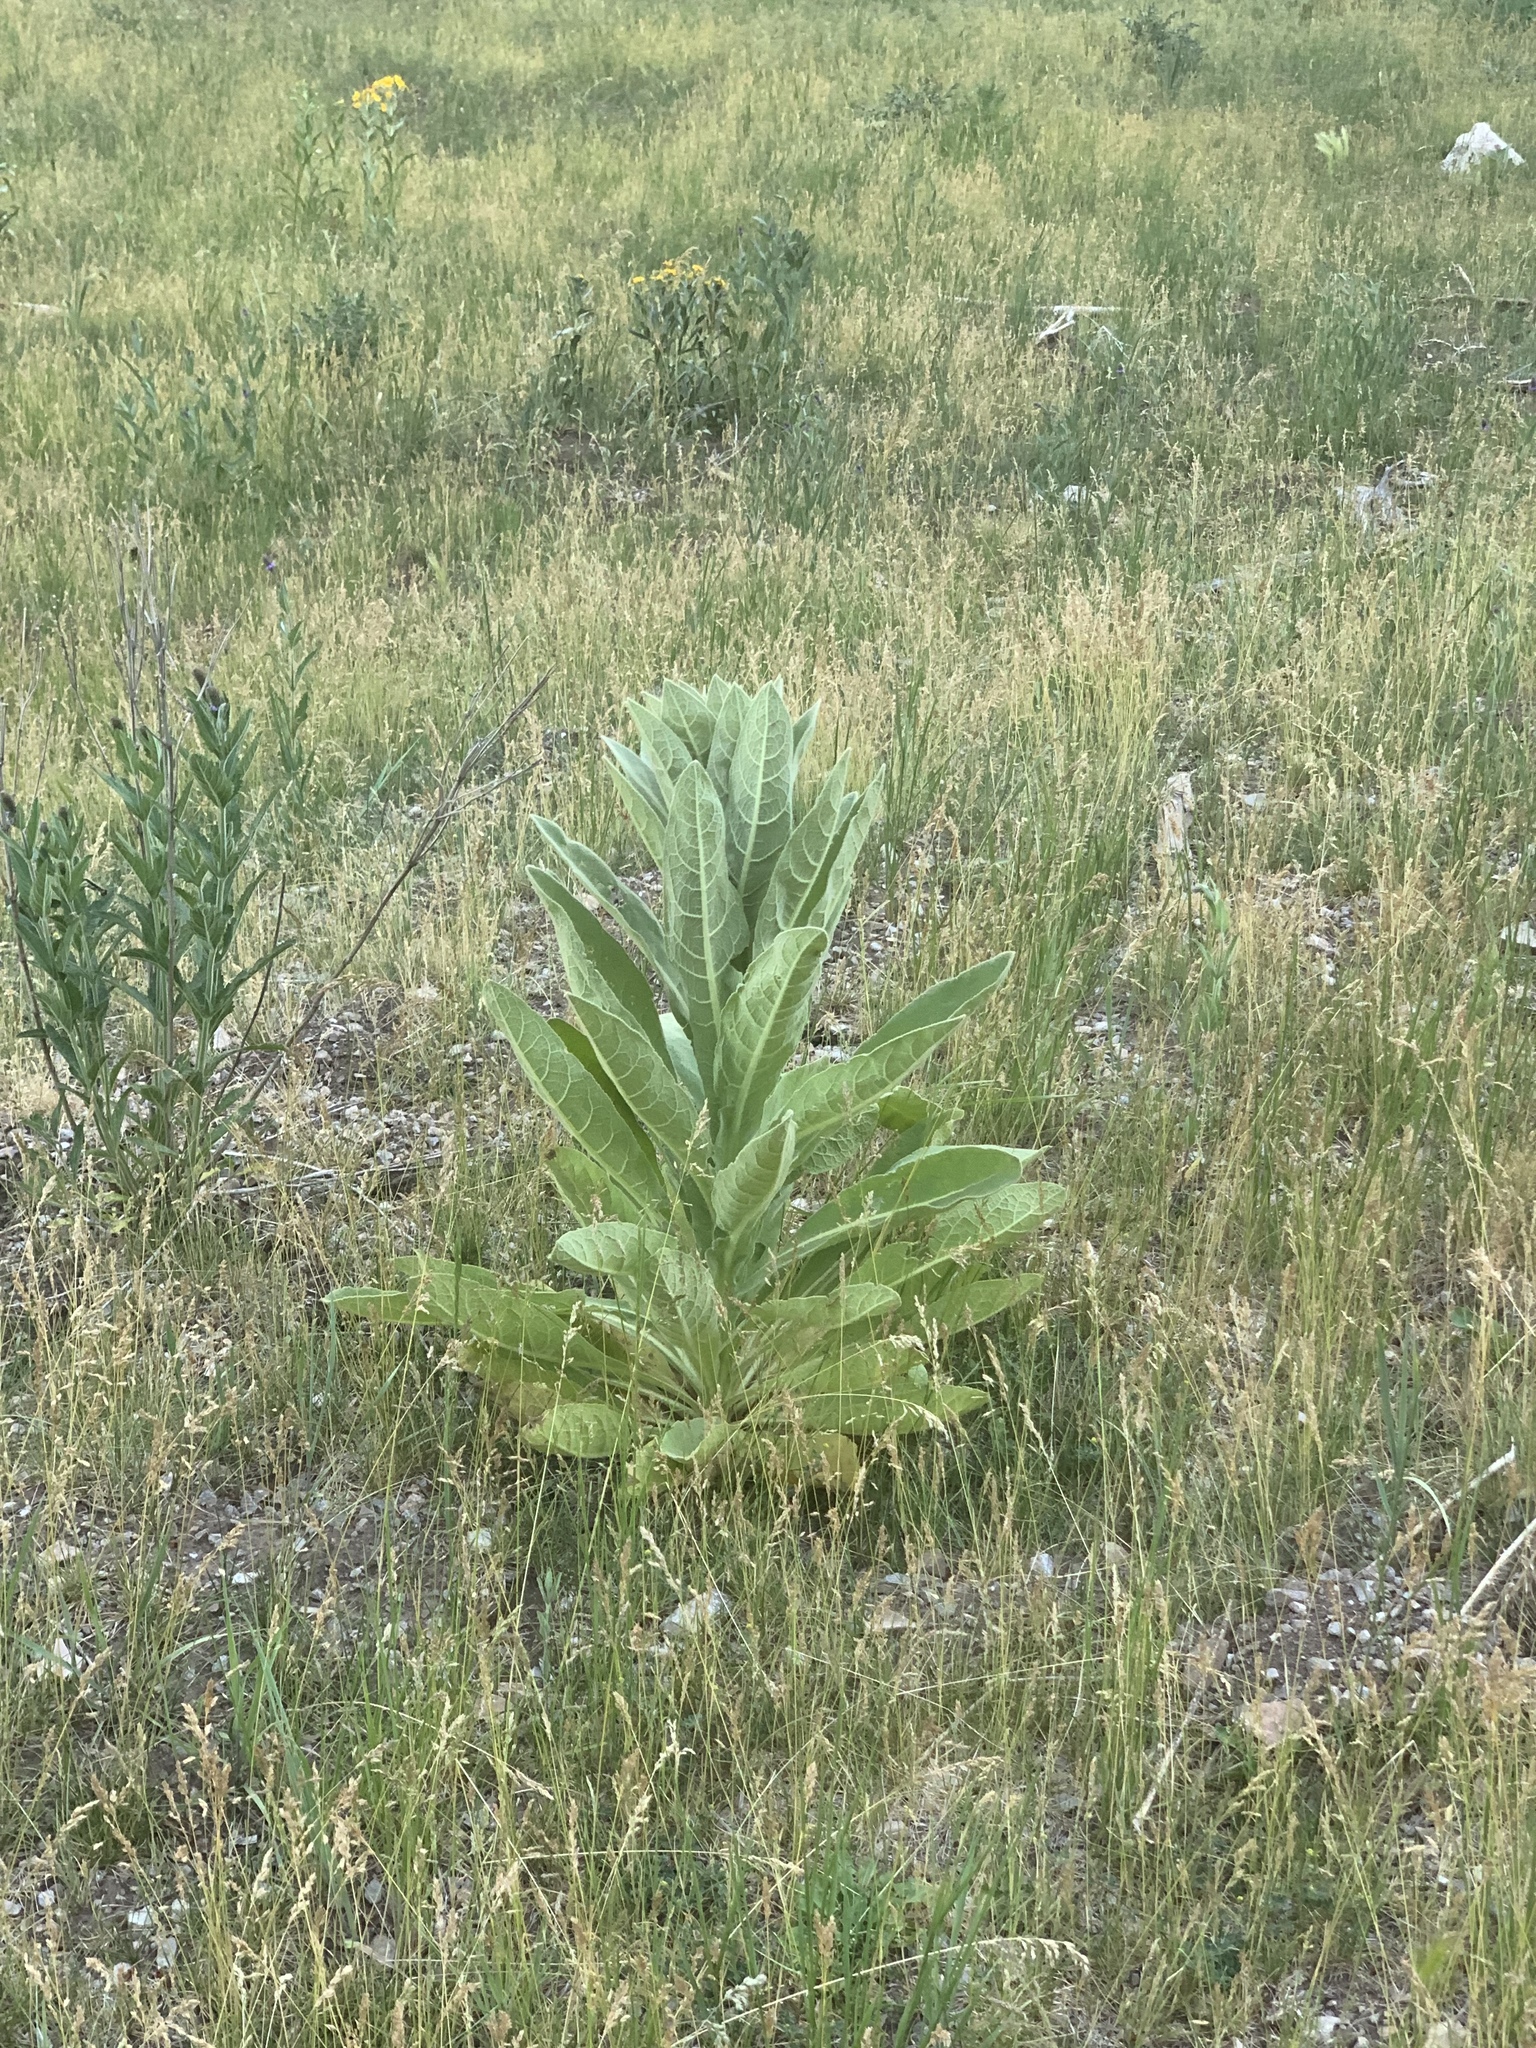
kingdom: Plantae
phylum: Tracheophyta
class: Magnoliopsida
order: Lamiales
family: Scrophulariaceae
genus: Verbascum
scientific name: Verbascum thapsus
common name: Common mullein
